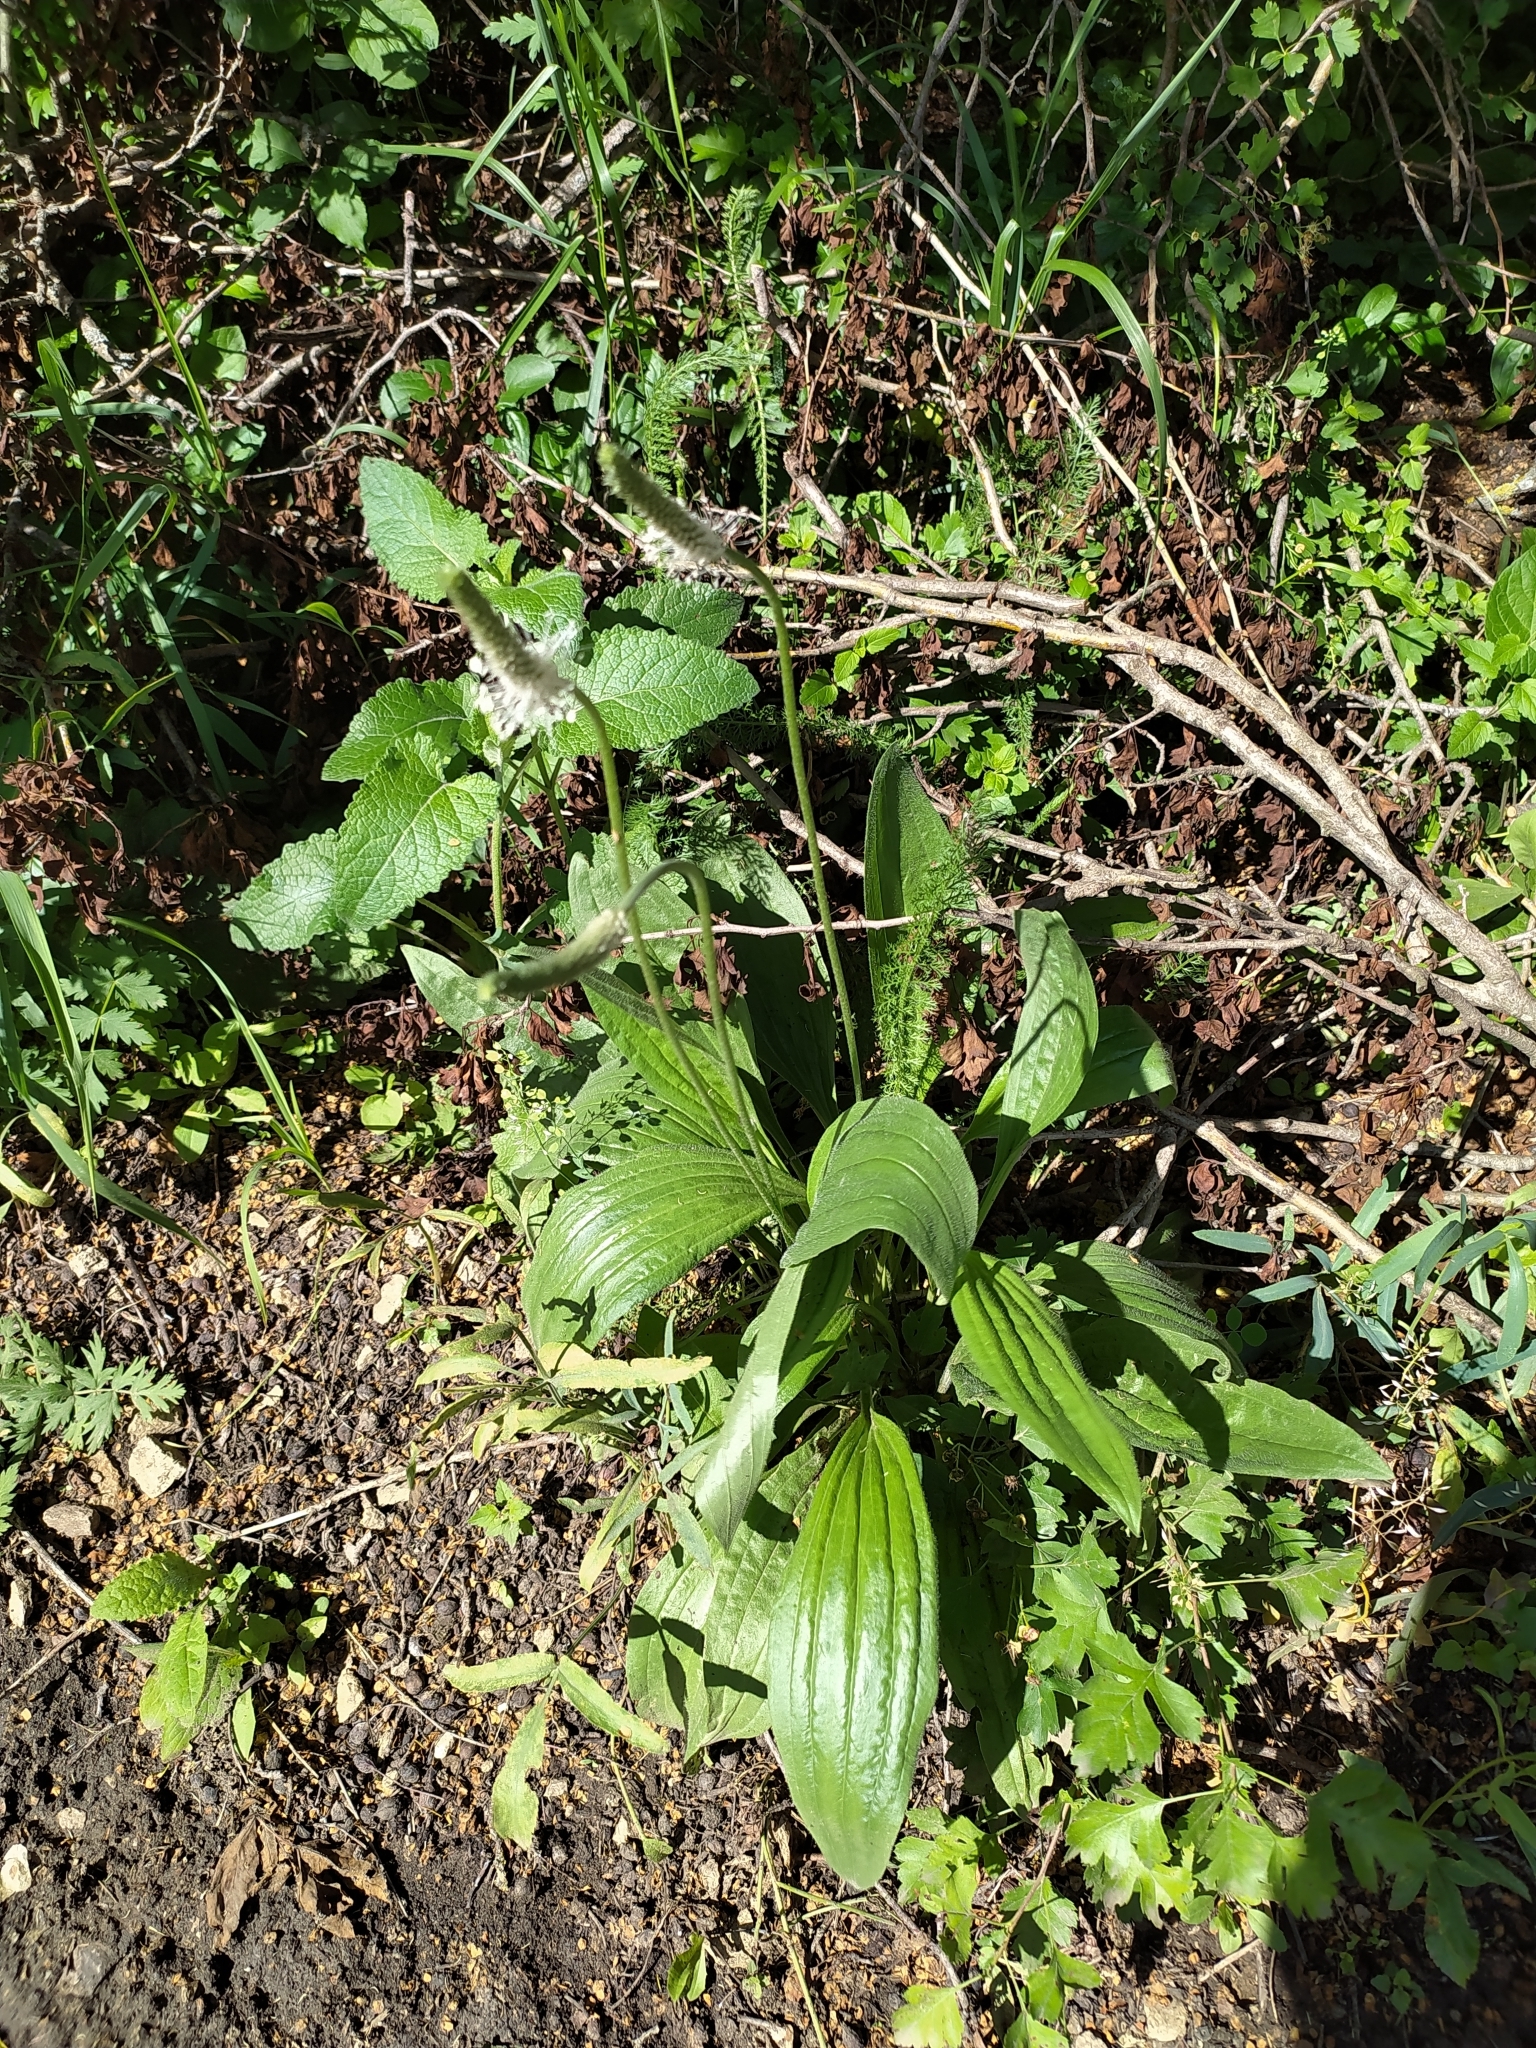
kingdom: Plantae
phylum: Tracheophyta
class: Magnoliopsida
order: Lamiales
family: Plantaginaceae
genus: Plantago
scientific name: Plantago lanceolata
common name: Ribwort plantain
